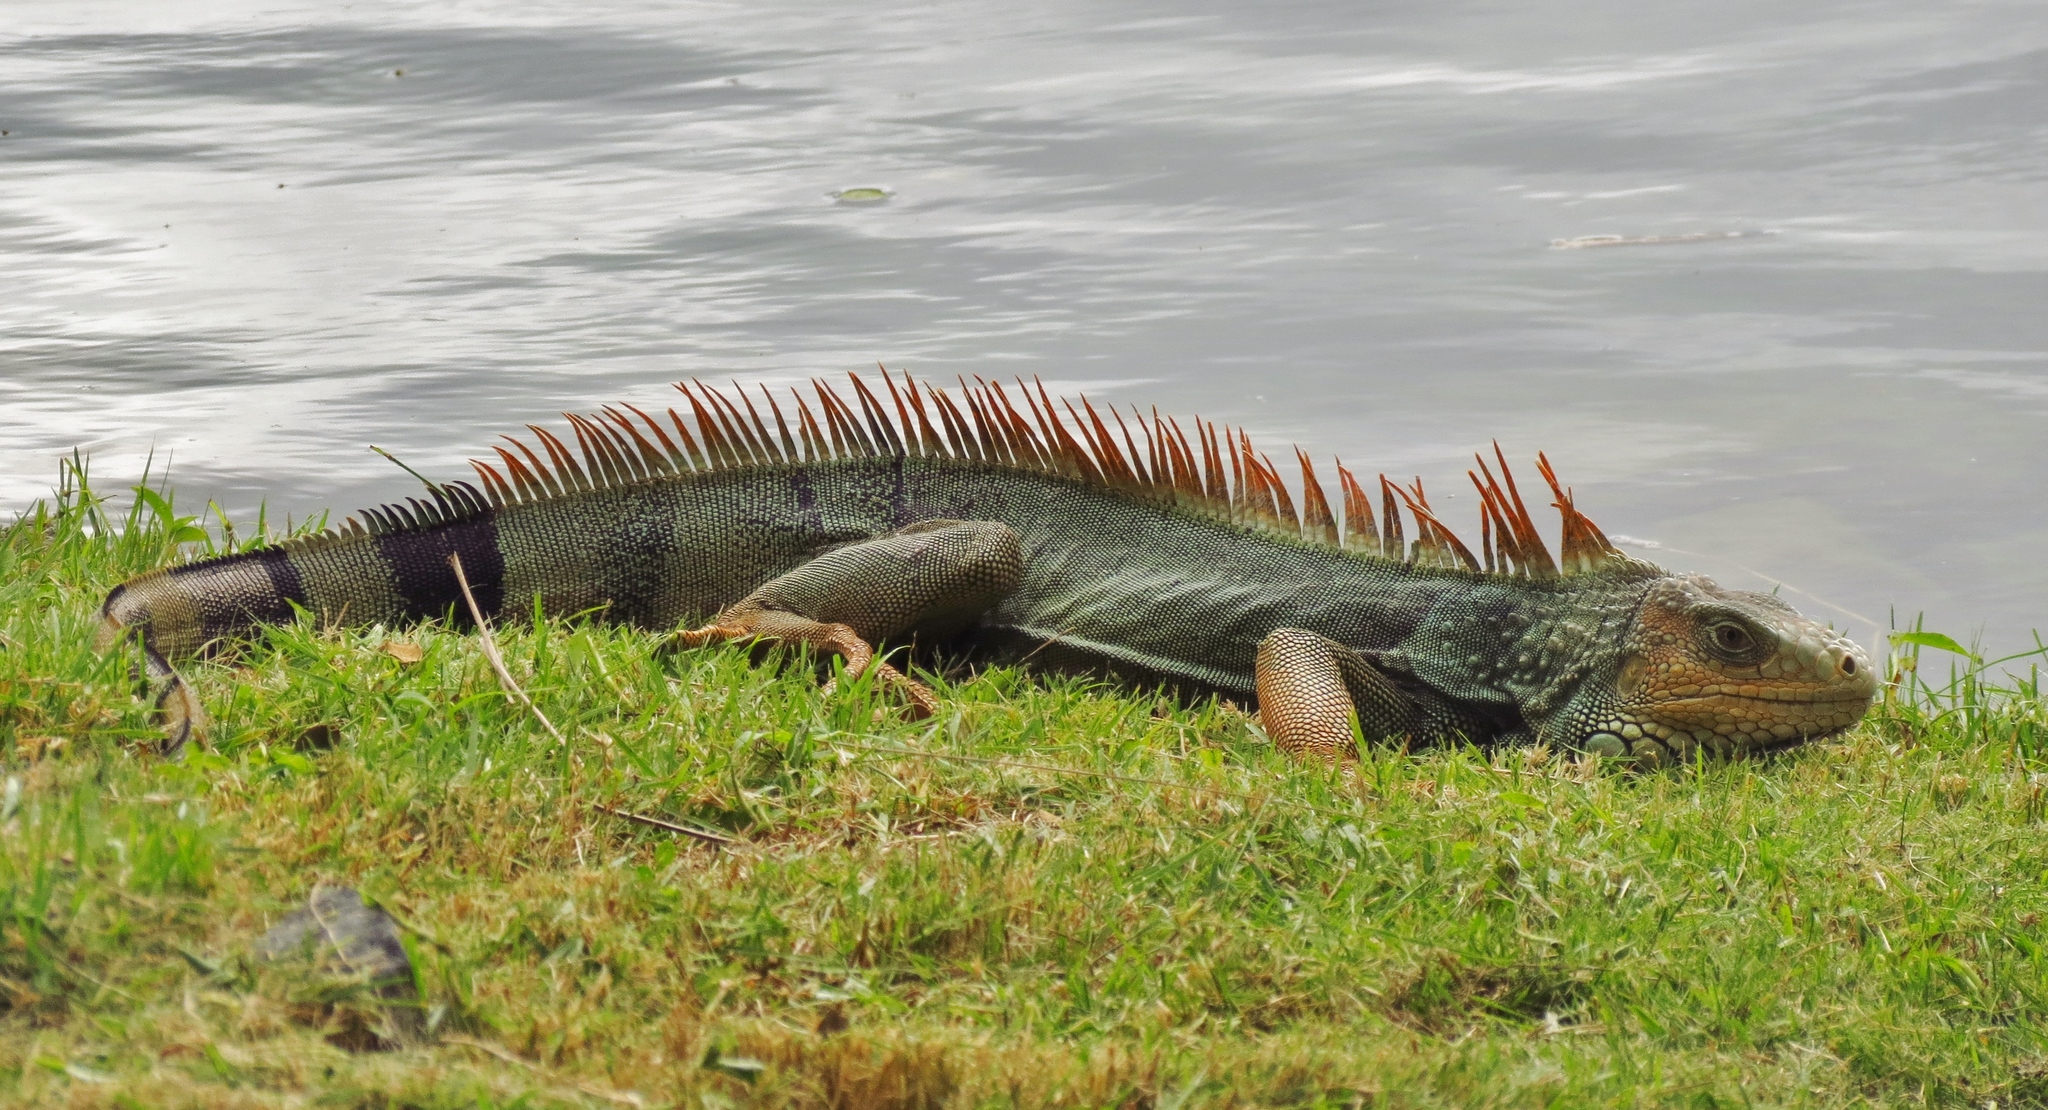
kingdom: Animalia
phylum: Chordata
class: Squamata
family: Iguanidae
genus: Iguana
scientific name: Iguana iguana
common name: Green iguana
